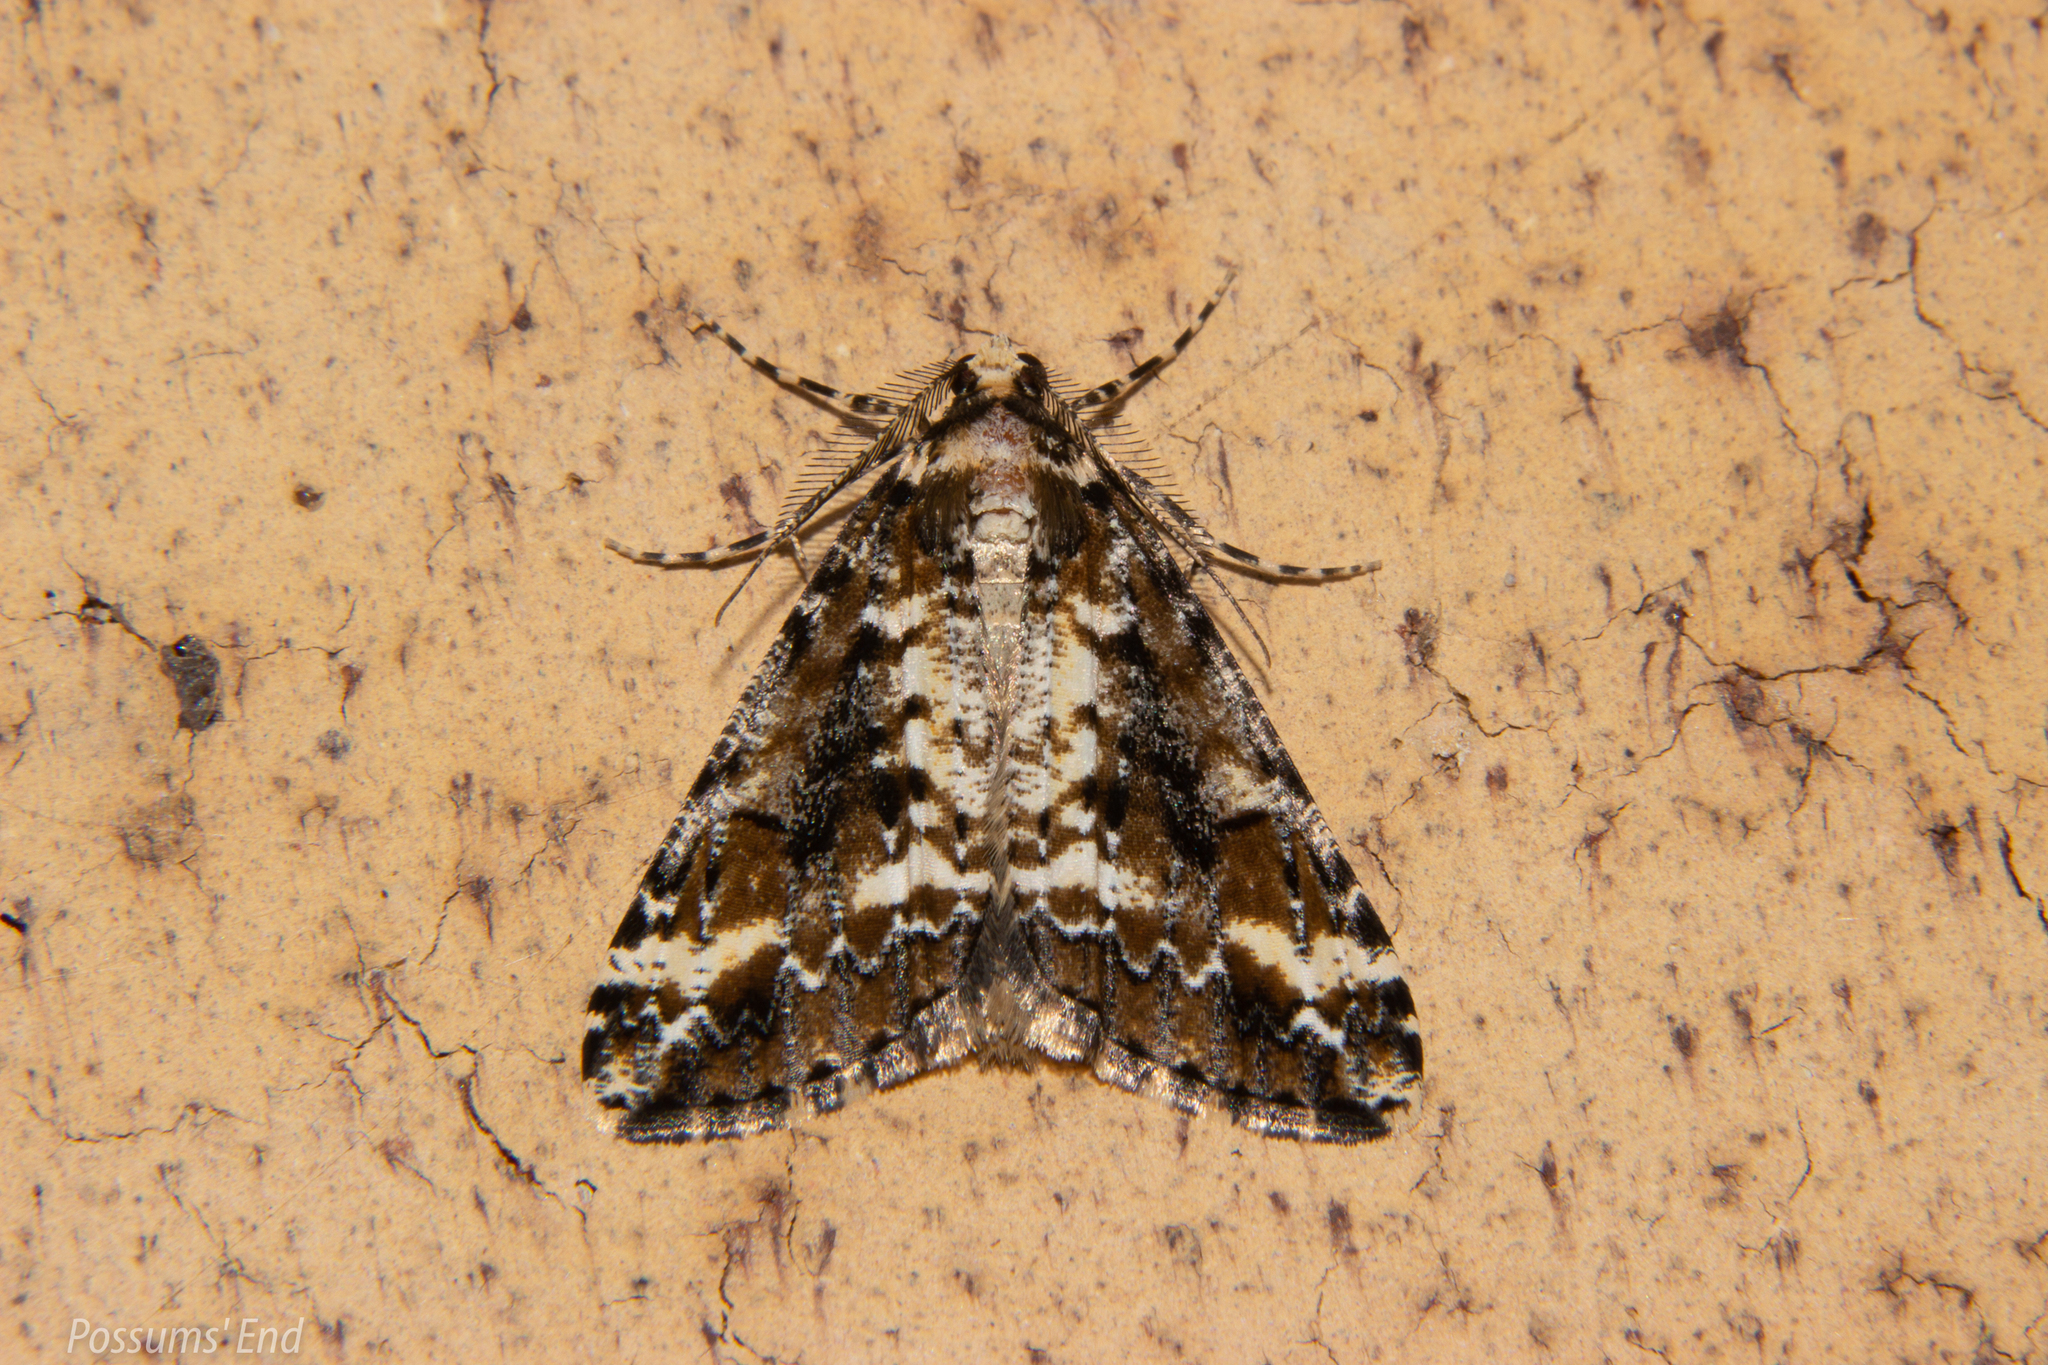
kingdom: Animalia
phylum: Arthropoda
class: Insecta
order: Lepidoptera
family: Geometridae
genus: Pseudocoremia
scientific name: Pseudocoremia leucelaea
